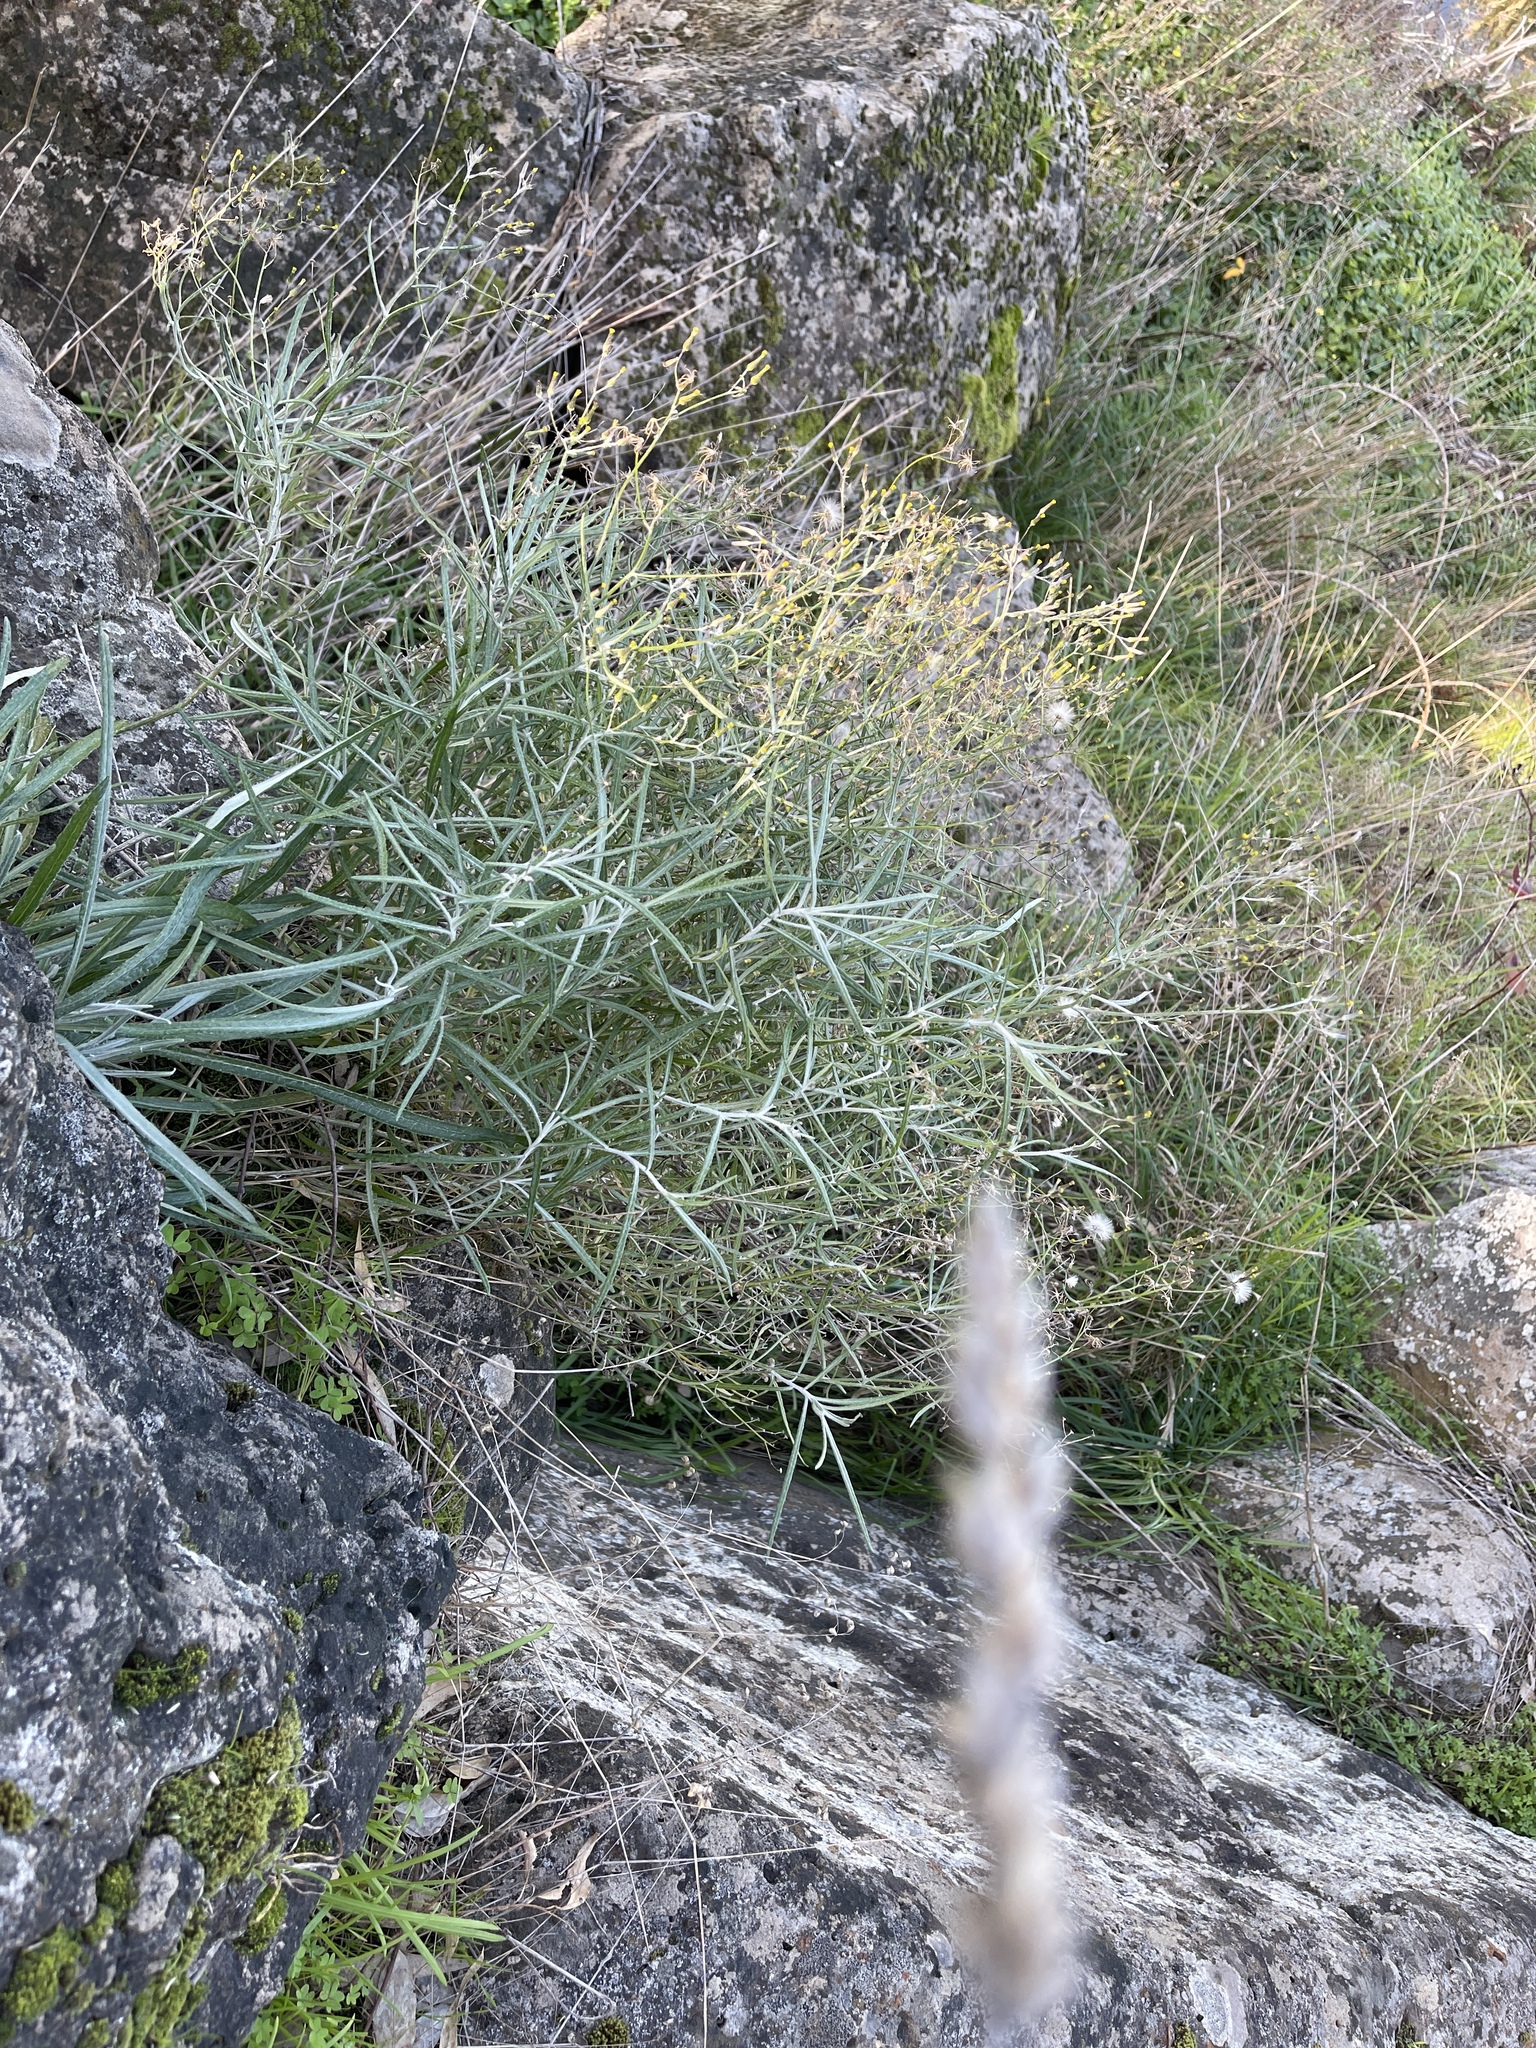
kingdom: Plantae
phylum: Tracheophyta
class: Magnoliopsida
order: Asterales
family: Asteraceae
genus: Senecio
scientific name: Senecio quadridentatus
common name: Cotton fireweed
